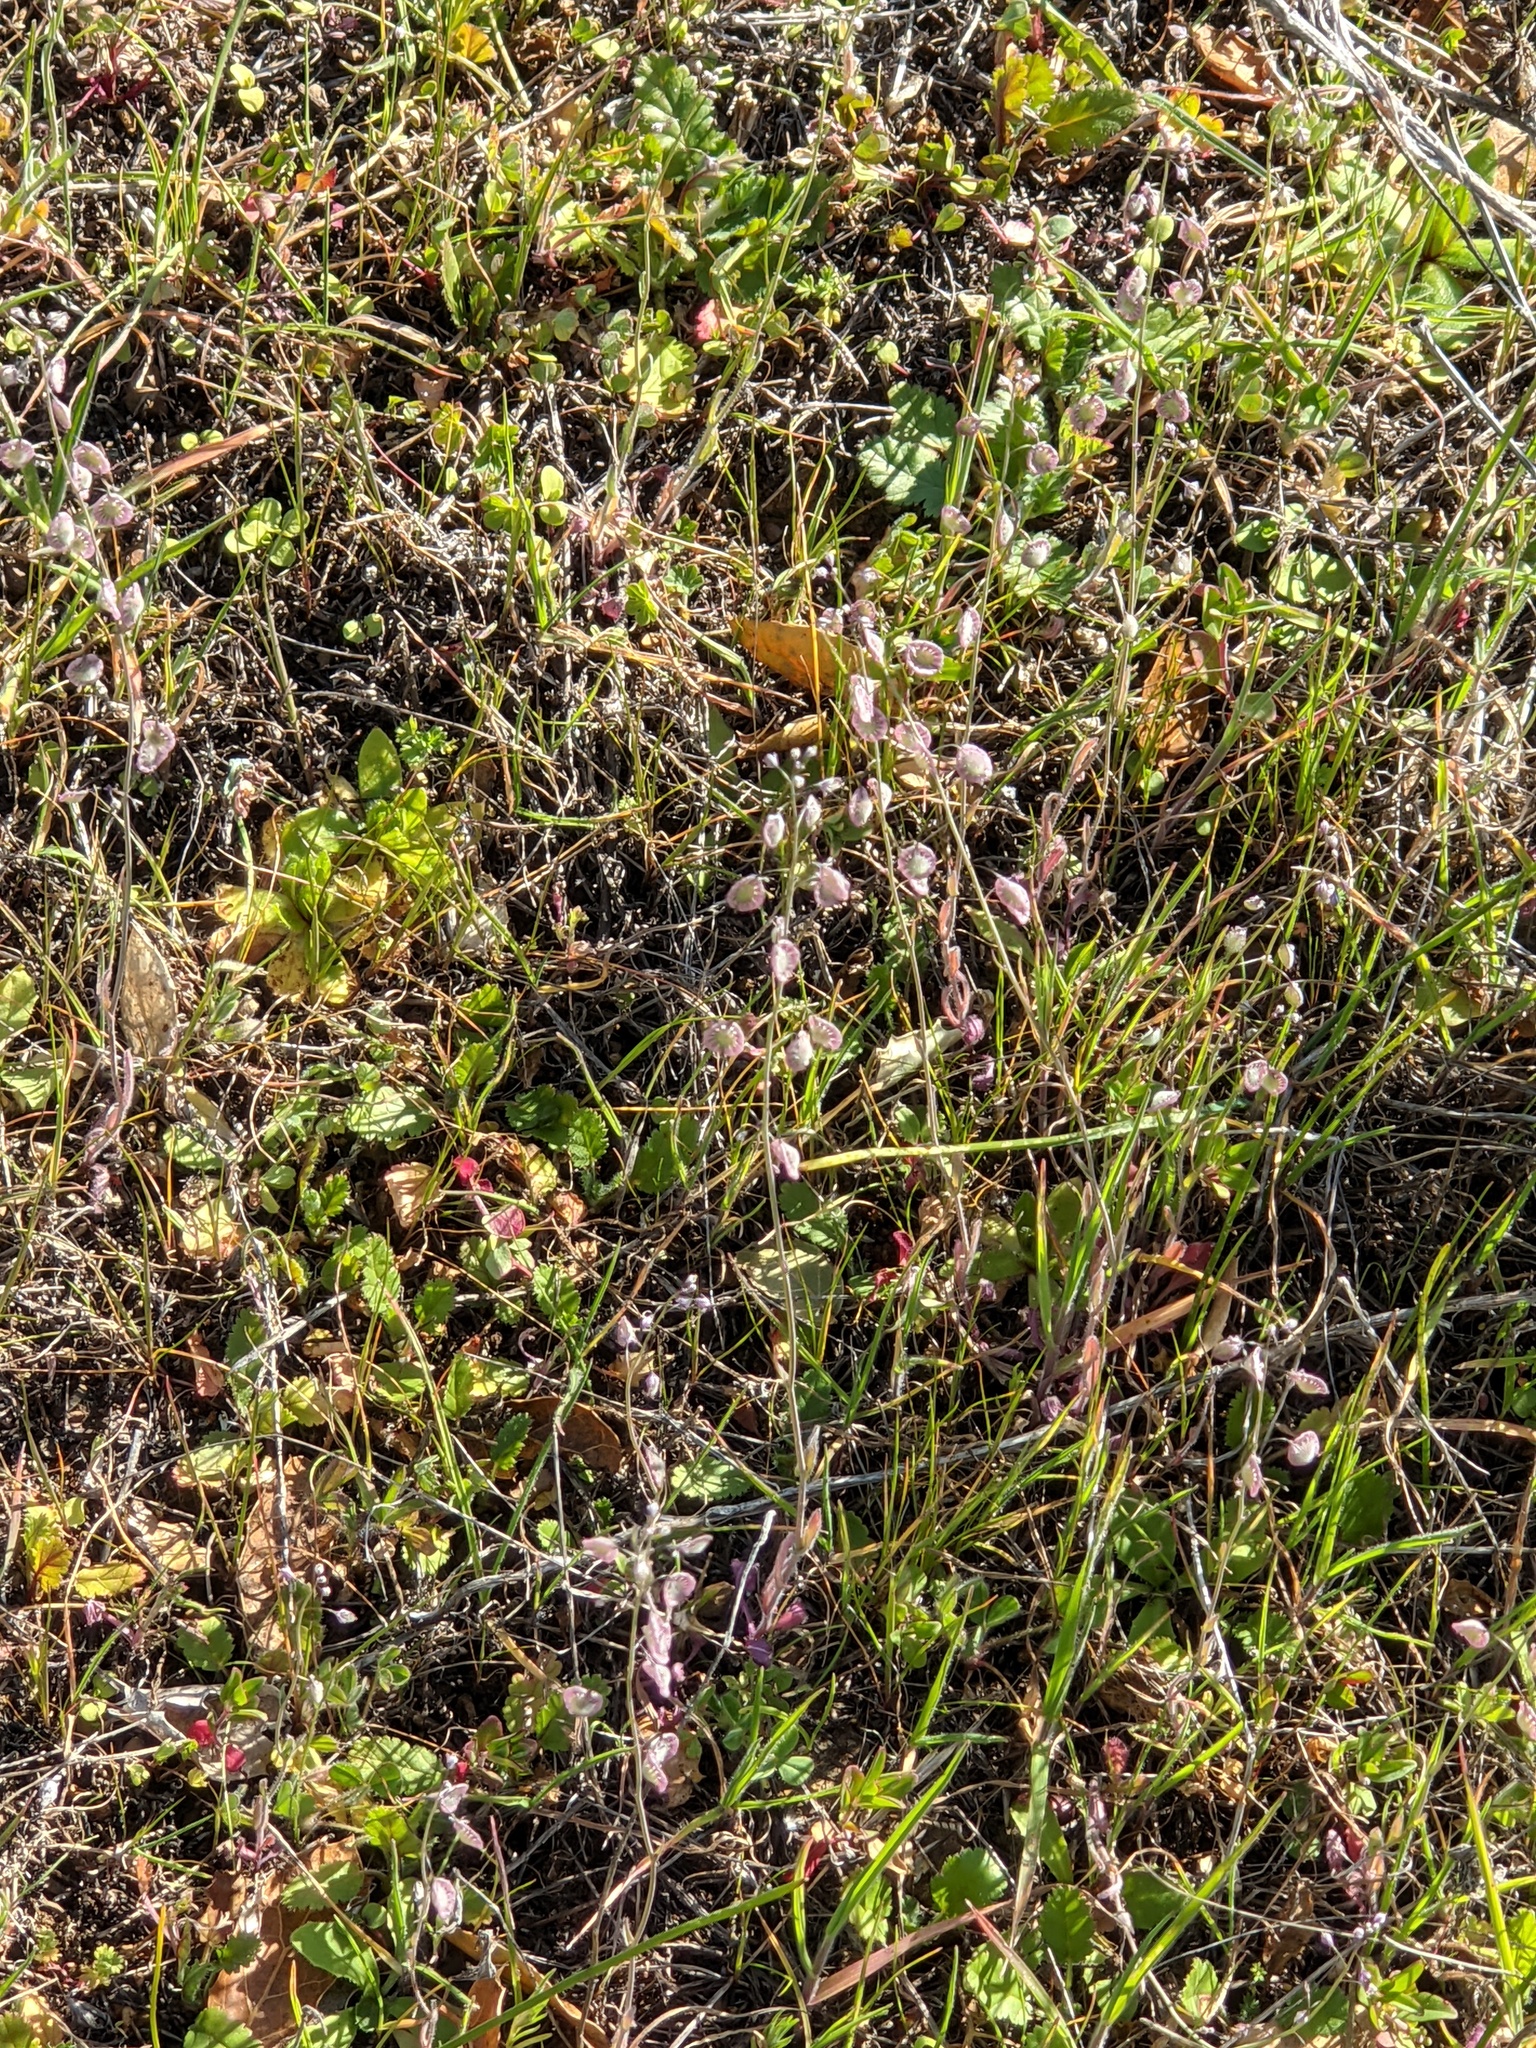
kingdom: Plantae
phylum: Tracheophyta
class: Magnoliopsida
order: Brassicales
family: Brassicaceae
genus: Thysanocarpus
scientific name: Thysanocarpus curvipes
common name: Sand fringepod
